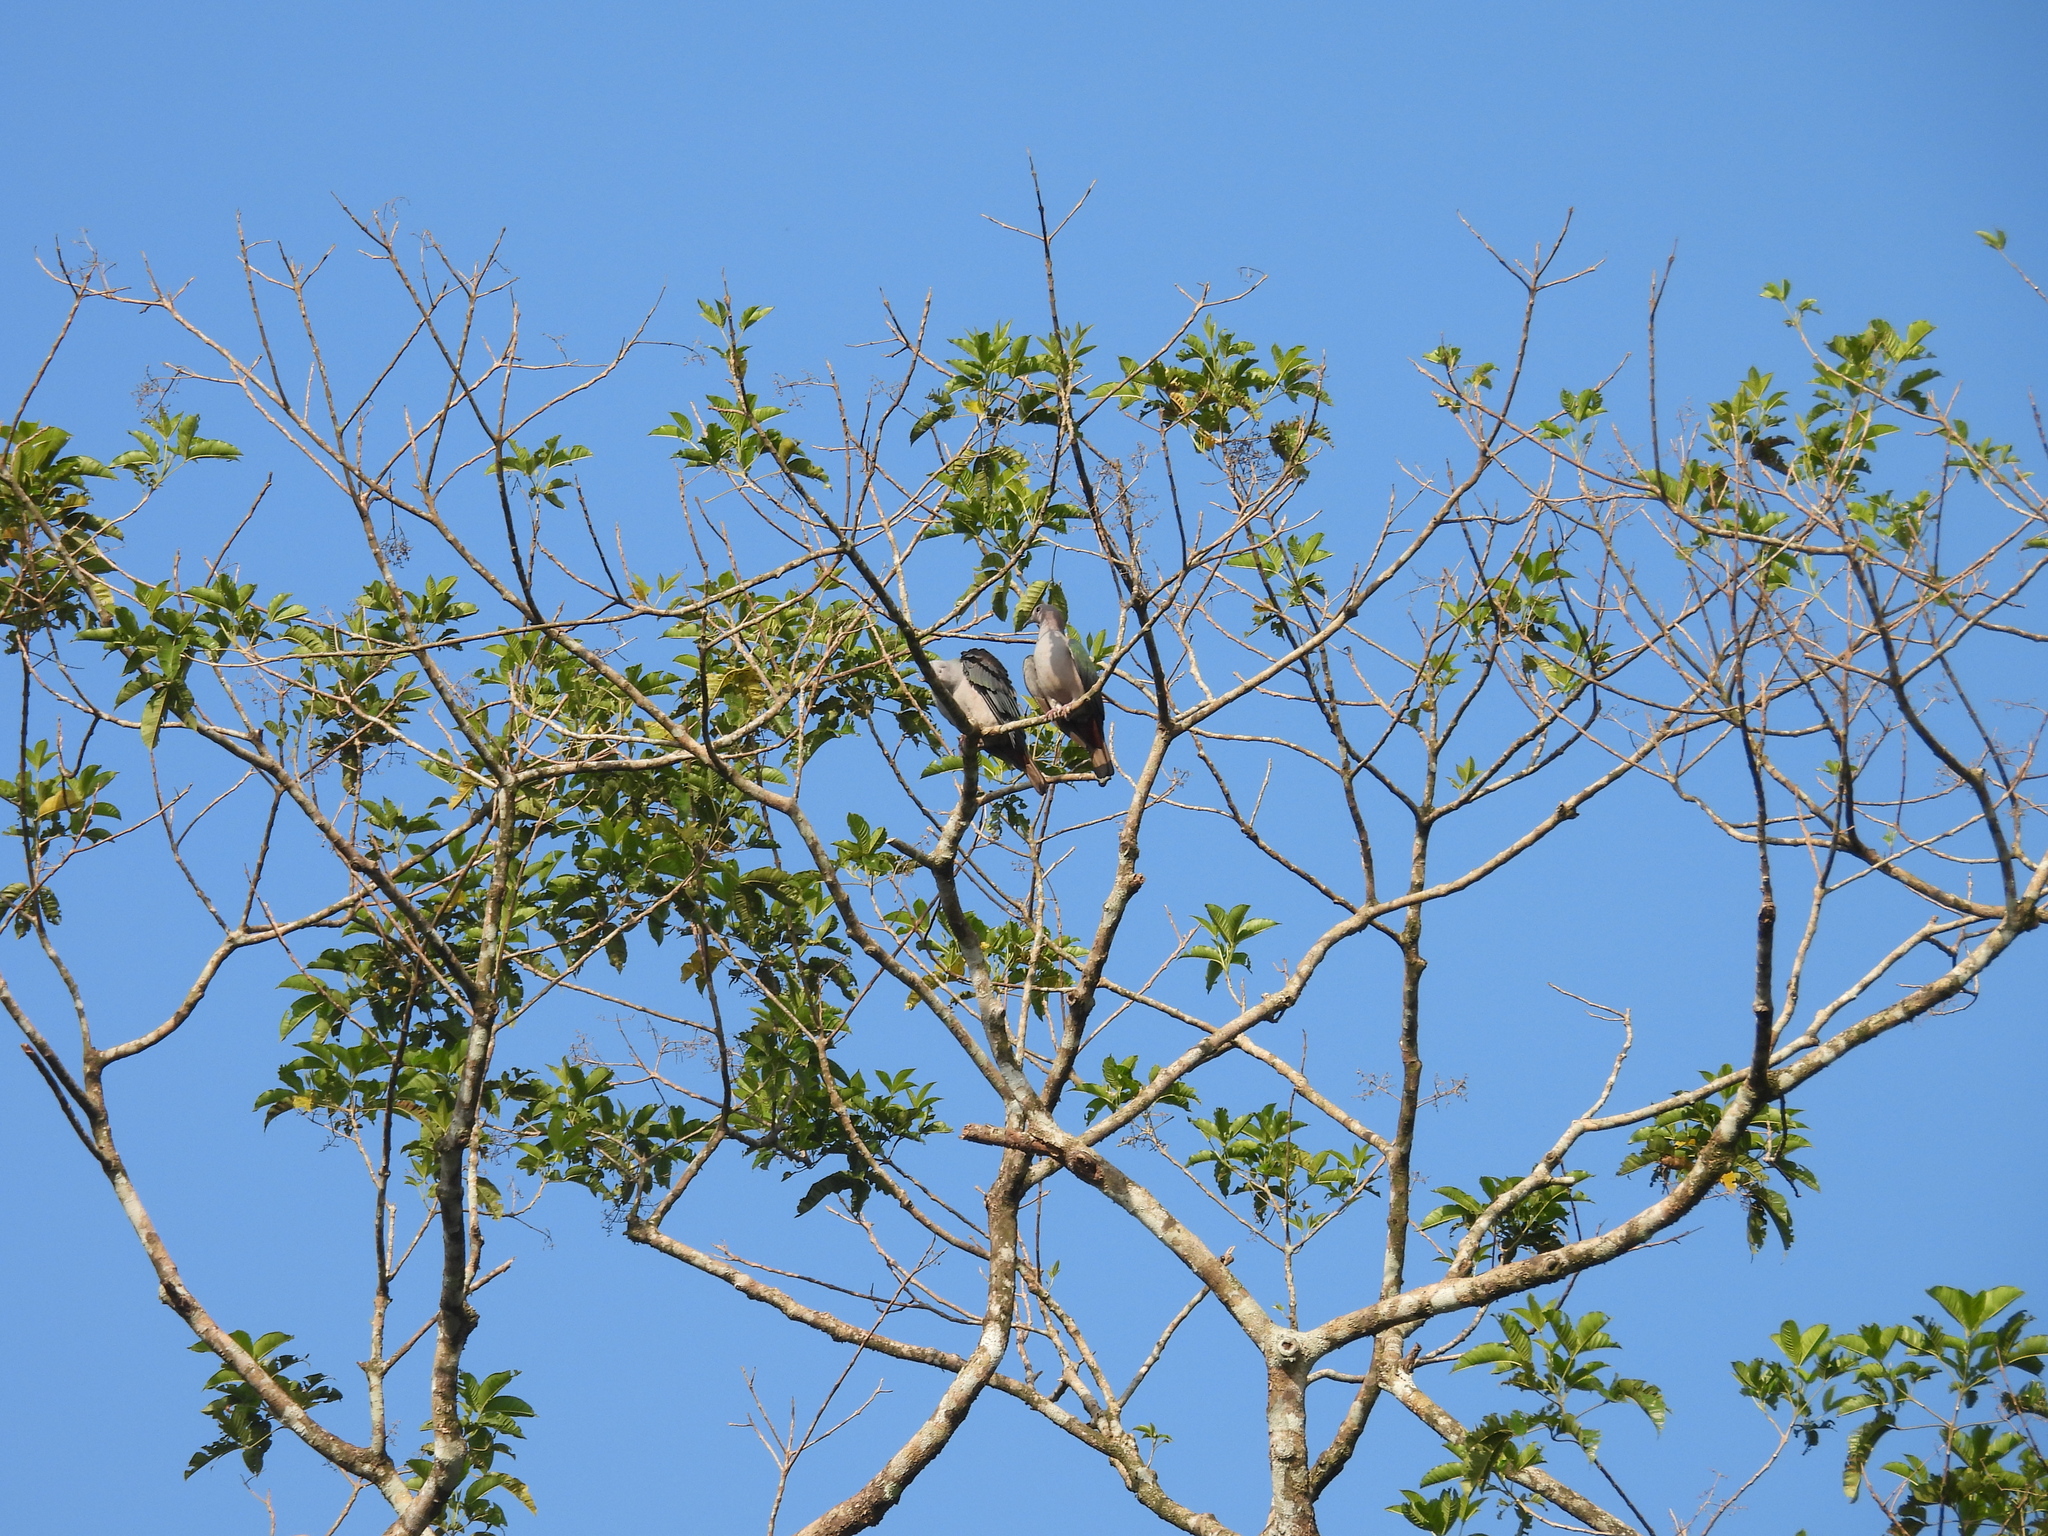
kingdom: Animalia
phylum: Chordata
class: Aves
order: Columbiformes
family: Columbidae
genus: Ducula
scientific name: Ducula aenea
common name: Green imperial pigeon
